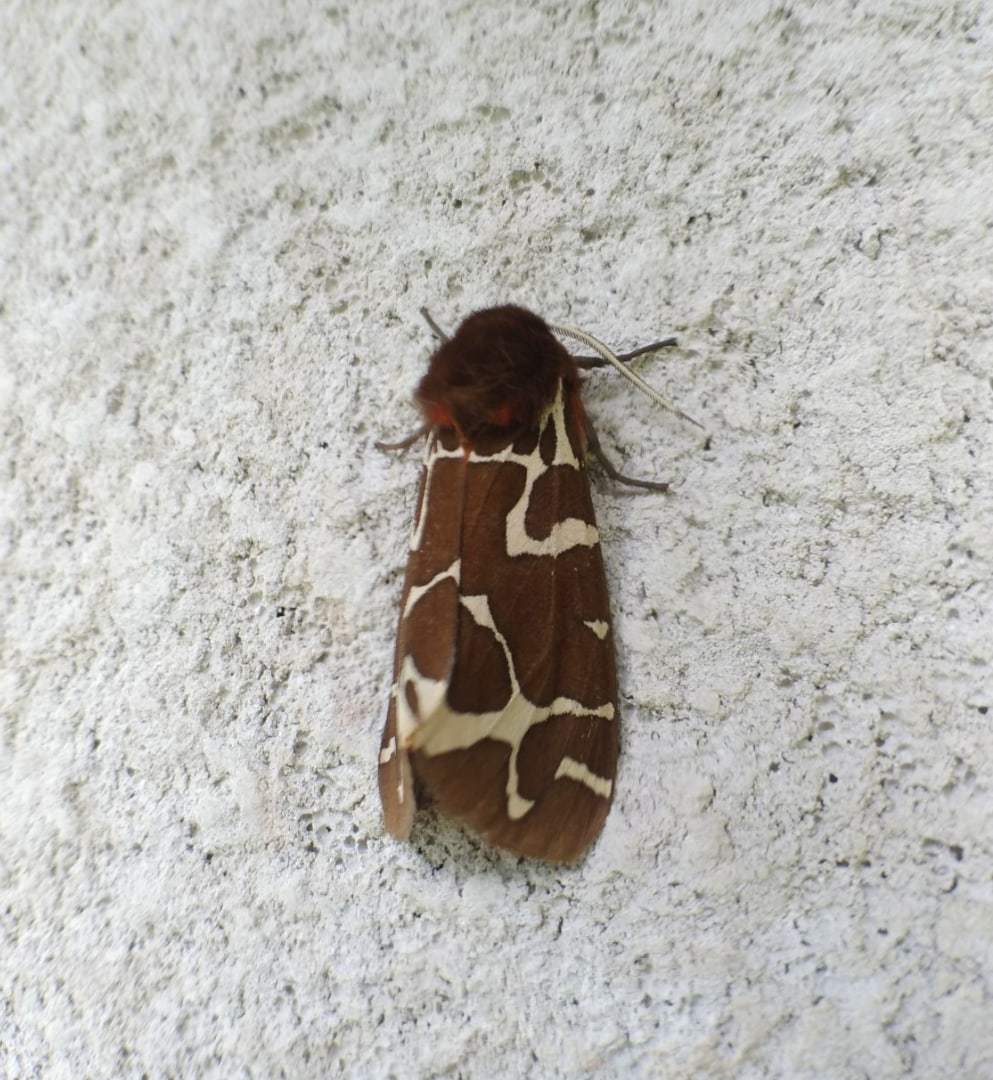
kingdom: Animalia
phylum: Arthropoda
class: Insecta
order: Lepidoptera
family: Erebidae
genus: Arctia
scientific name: Arctia caja
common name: Garden tiger
